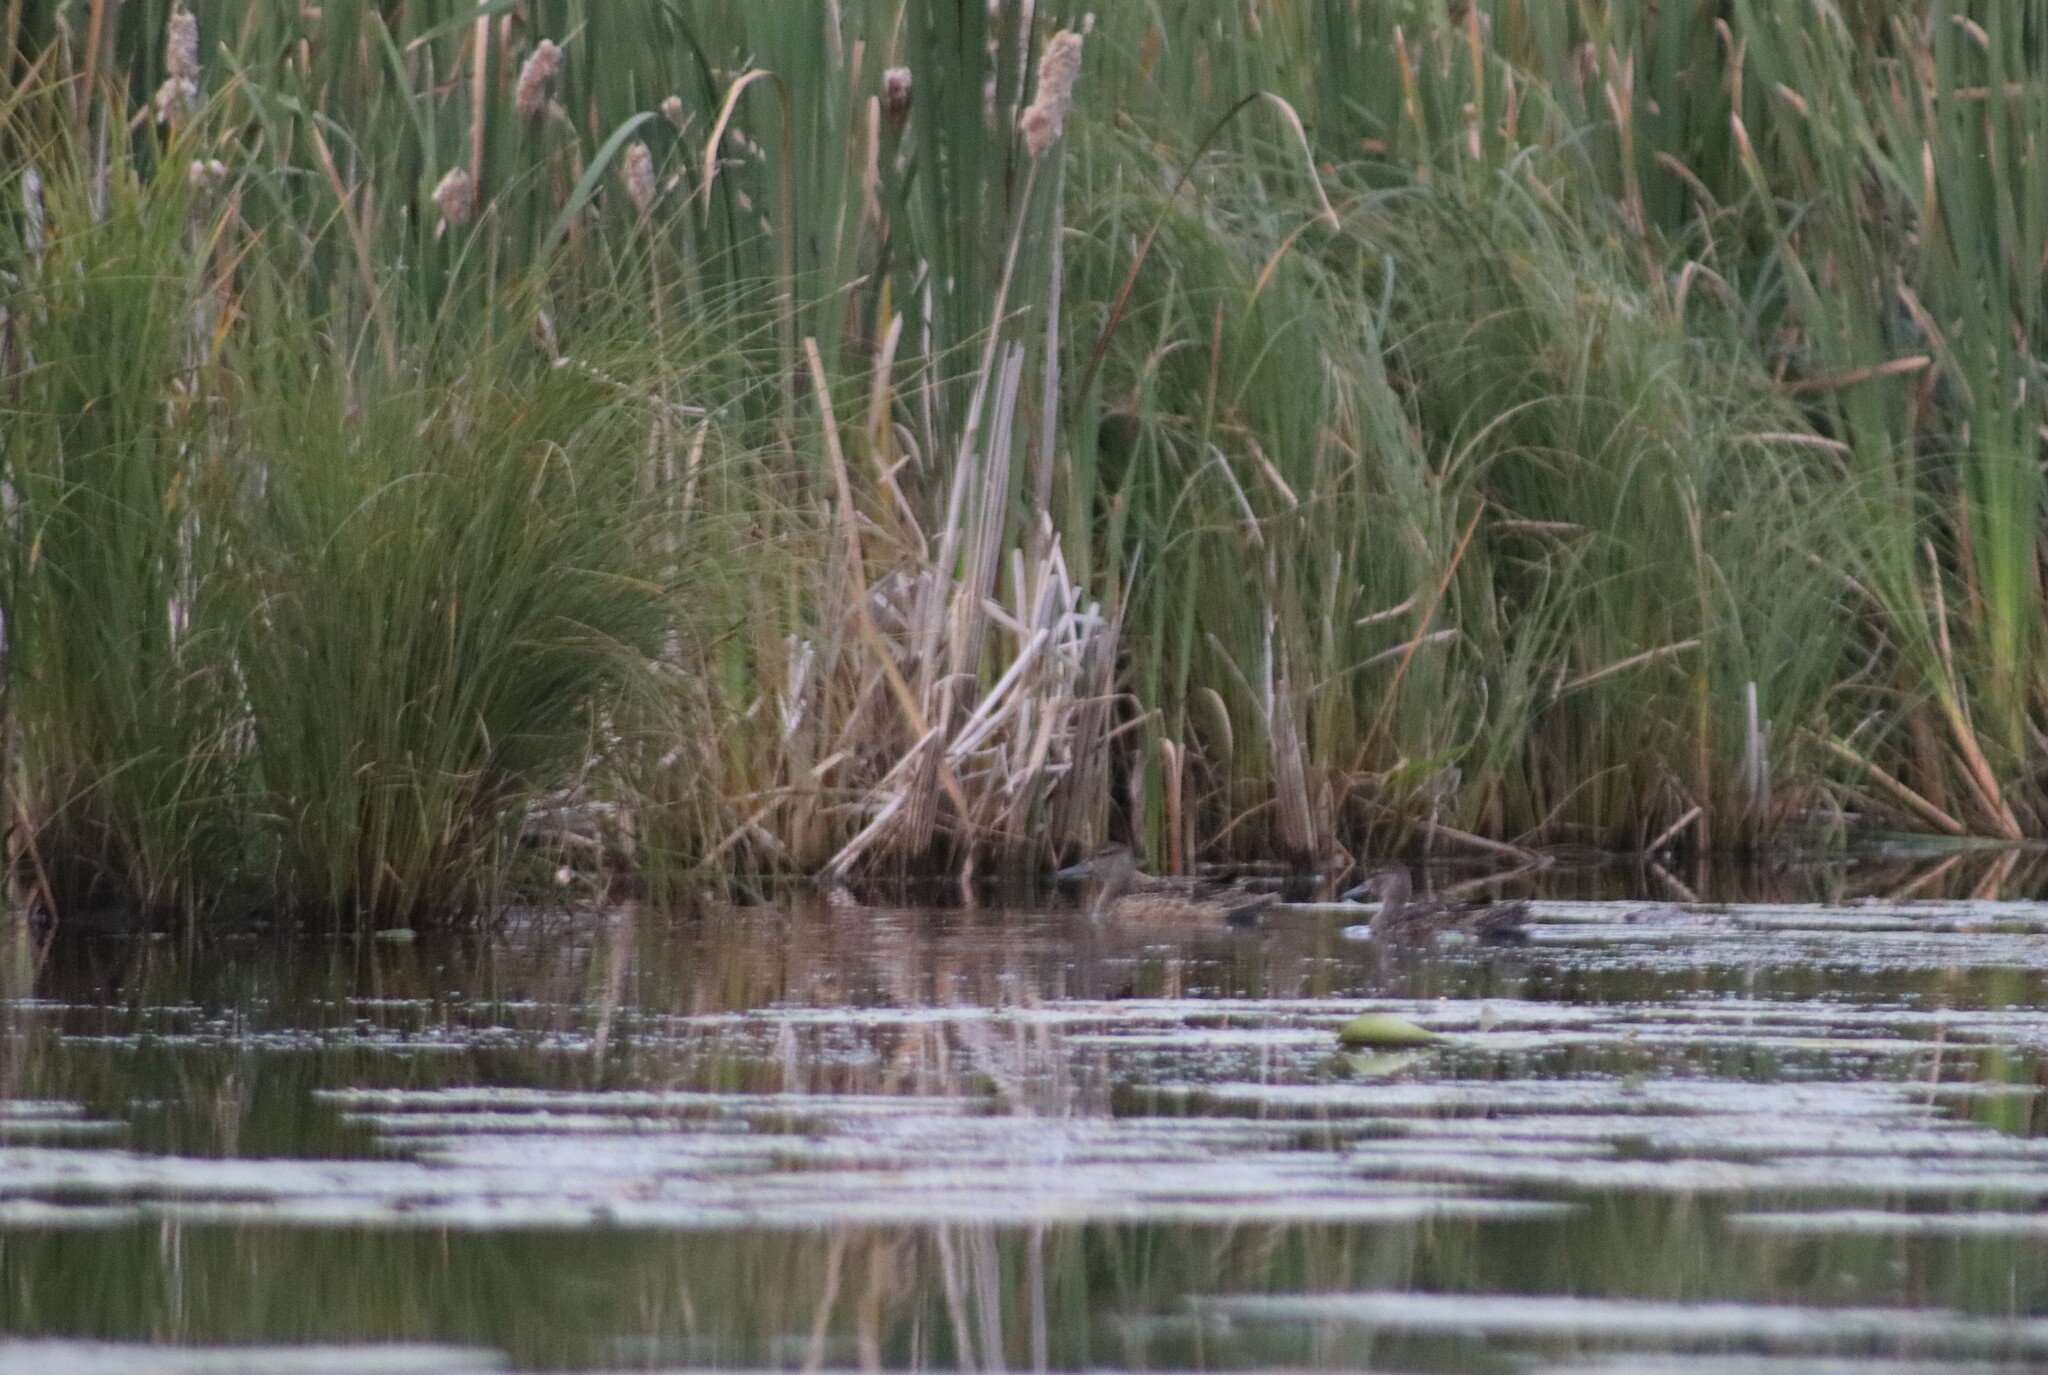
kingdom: Animalia
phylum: Chordata
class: Aves
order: Anseriformes
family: Anatidae
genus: Spatula
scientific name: Spatula discors
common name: Blue-winged teal
